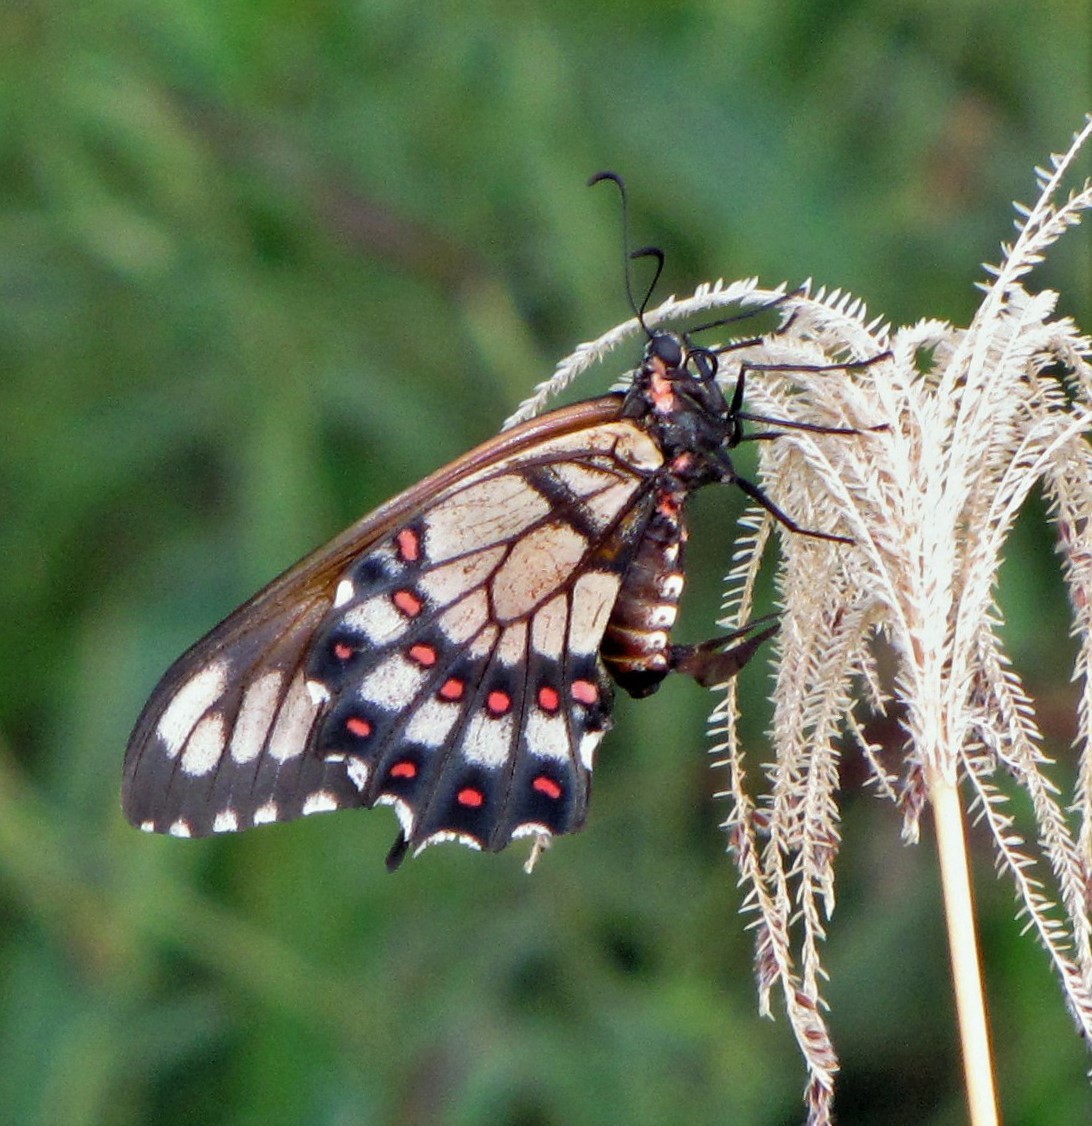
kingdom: Animalia
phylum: Arthropoda
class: Insecta
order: Lepidoptera
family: Papilionidae
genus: Euryades
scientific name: Euryades duponchelii
